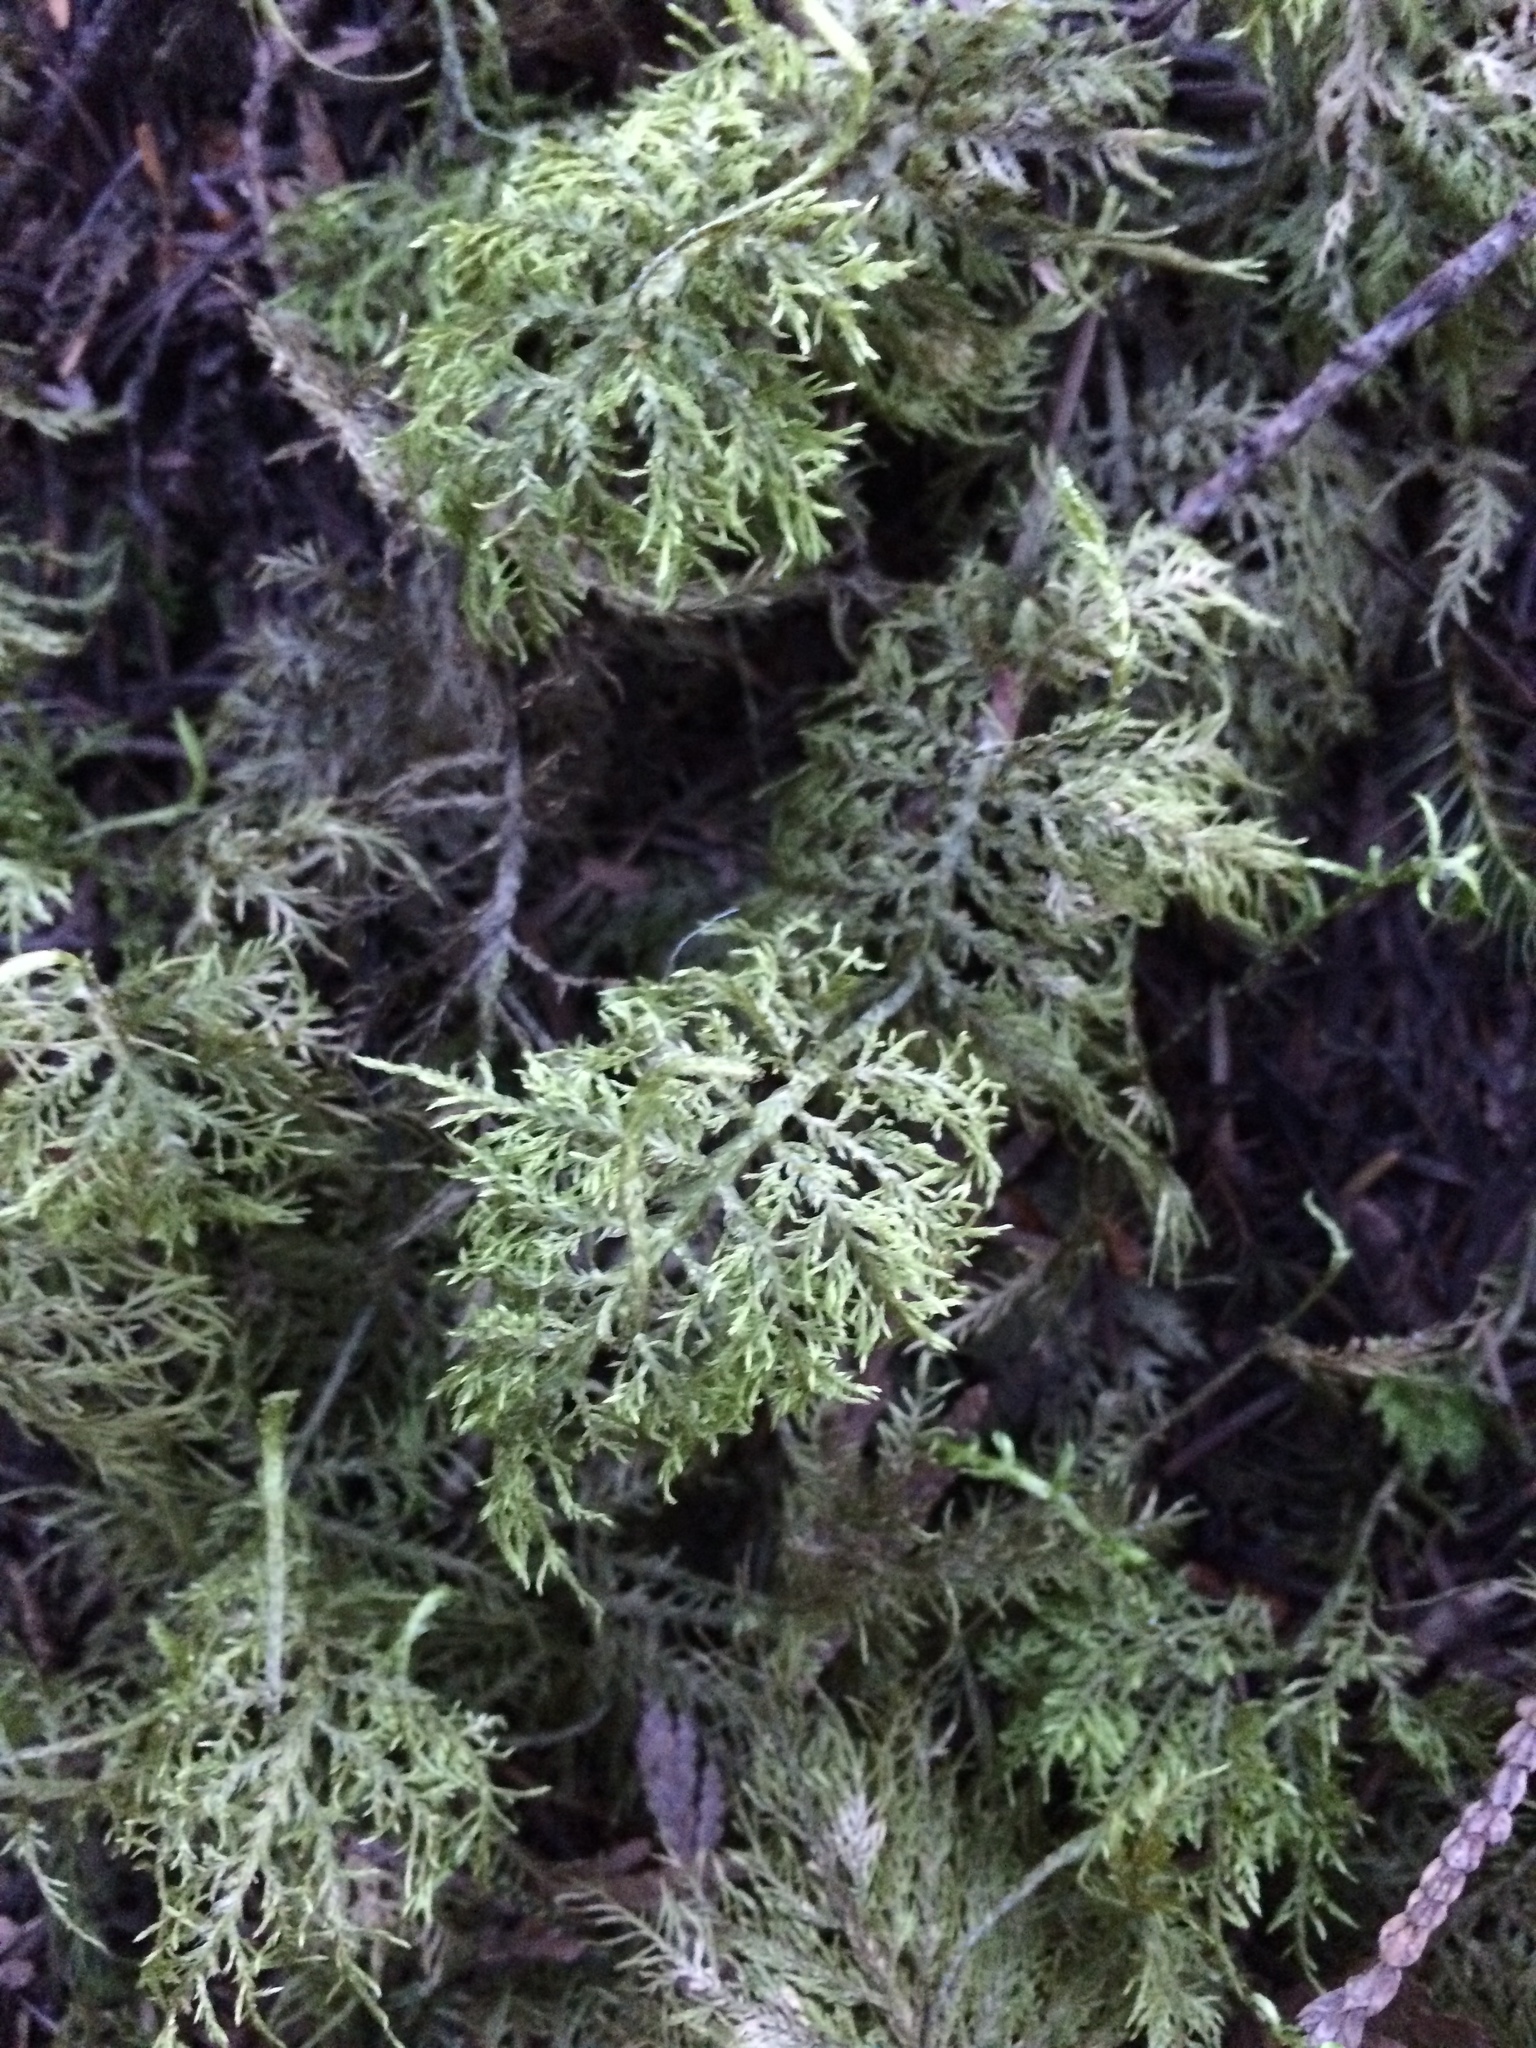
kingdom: Plantae
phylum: Bryophyta
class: Bryopsida
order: Hypnales
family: Hylocomiaceae
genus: Hylocomium
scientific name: Hylocomium splendens
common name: Stairstep moss
